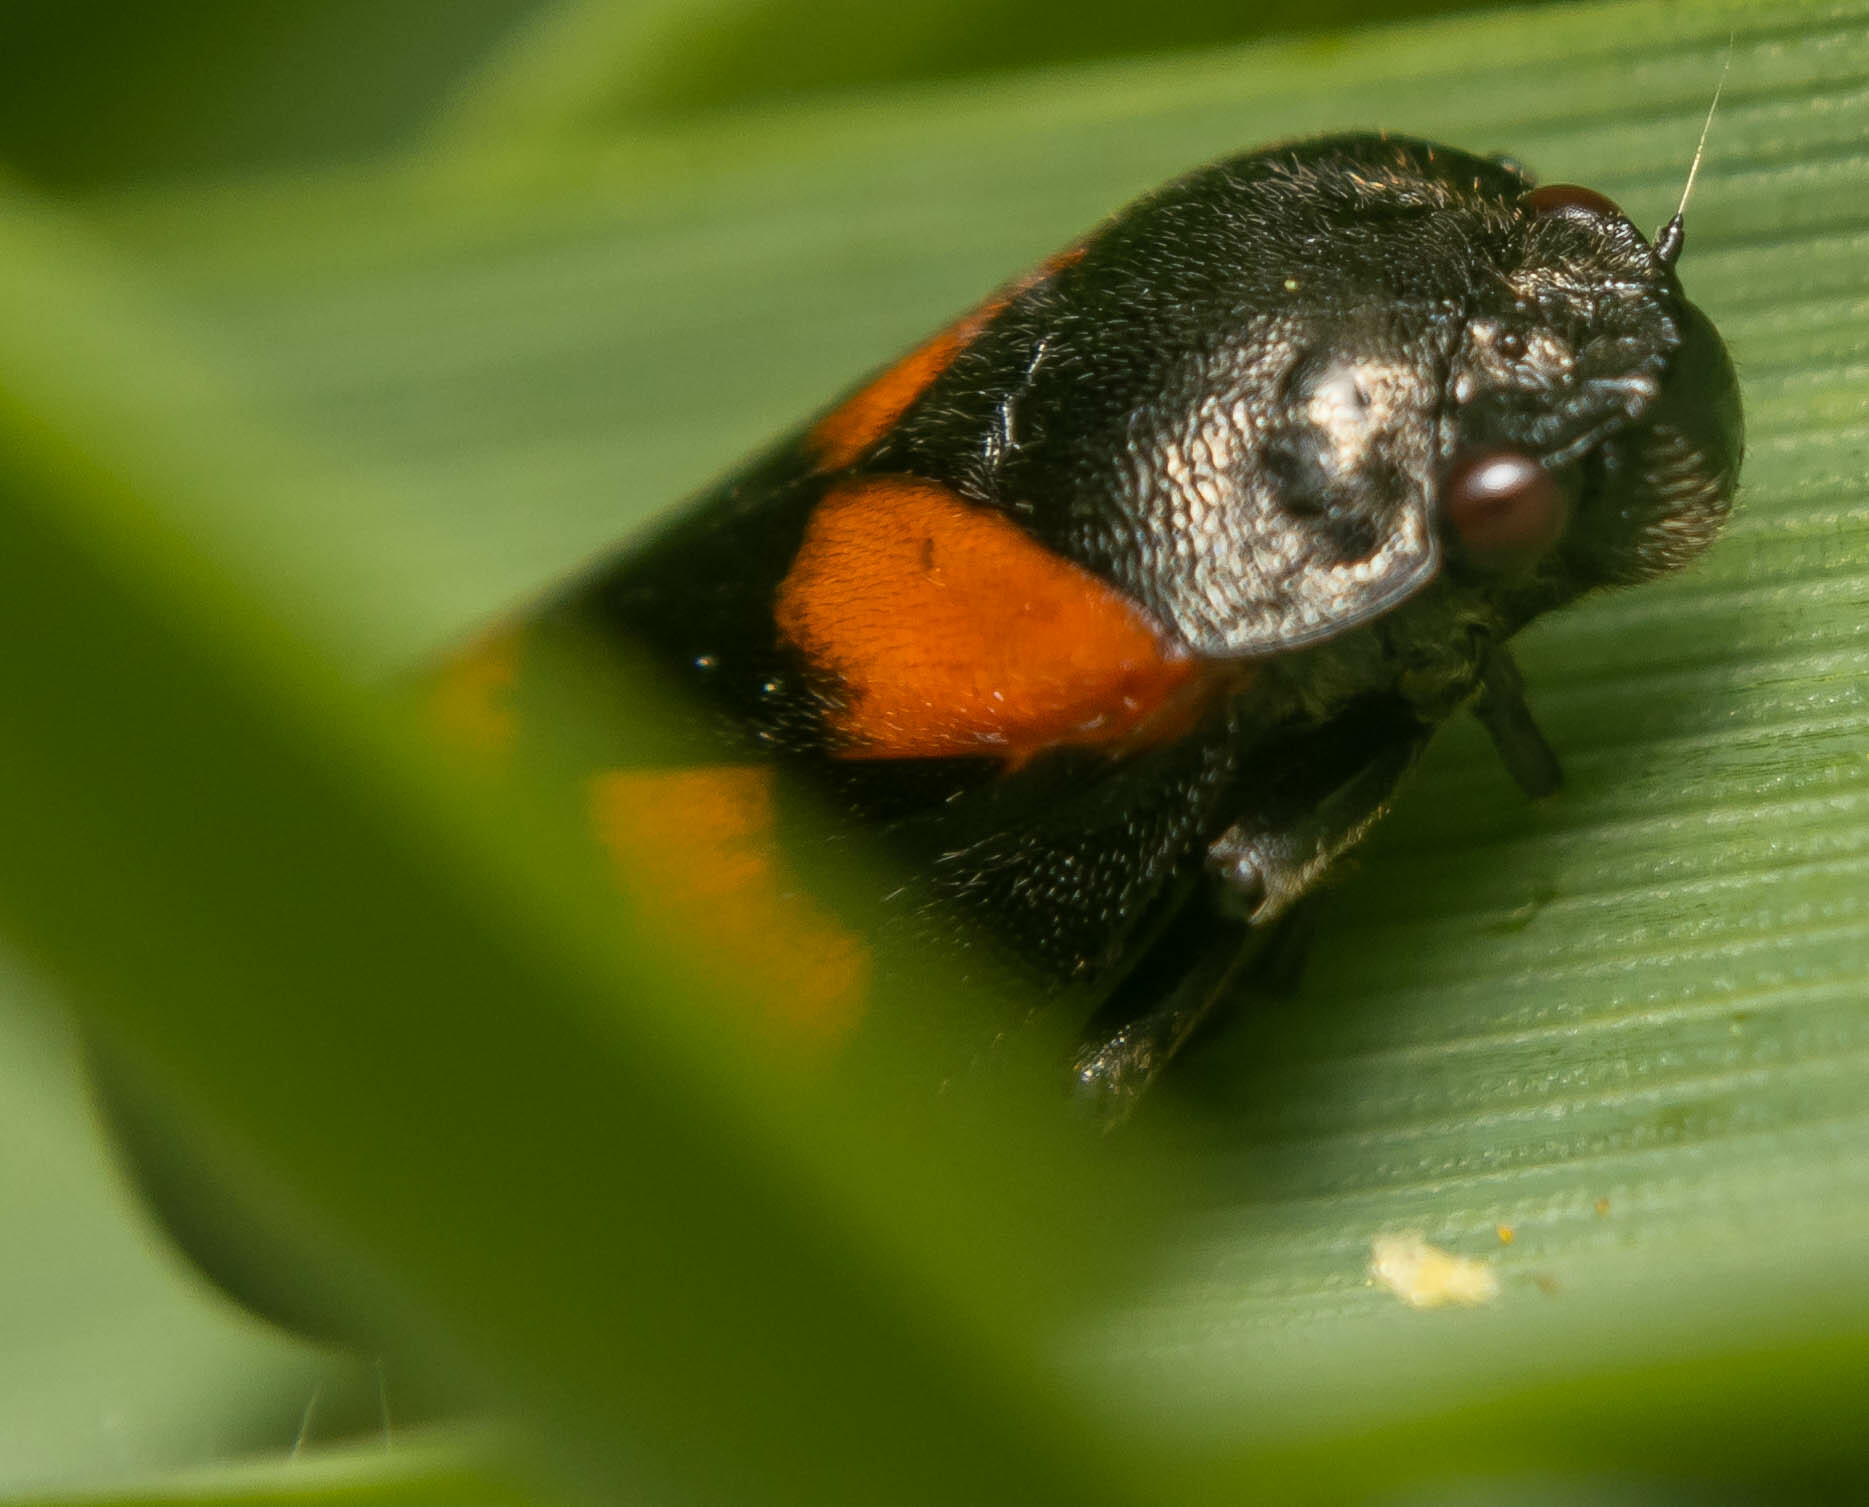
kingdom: Animalia
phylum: Arthropoda
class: Insecta
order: Hemiptera
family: Cercopidae
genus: Cercopis
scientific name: Cercopis vulnerata
